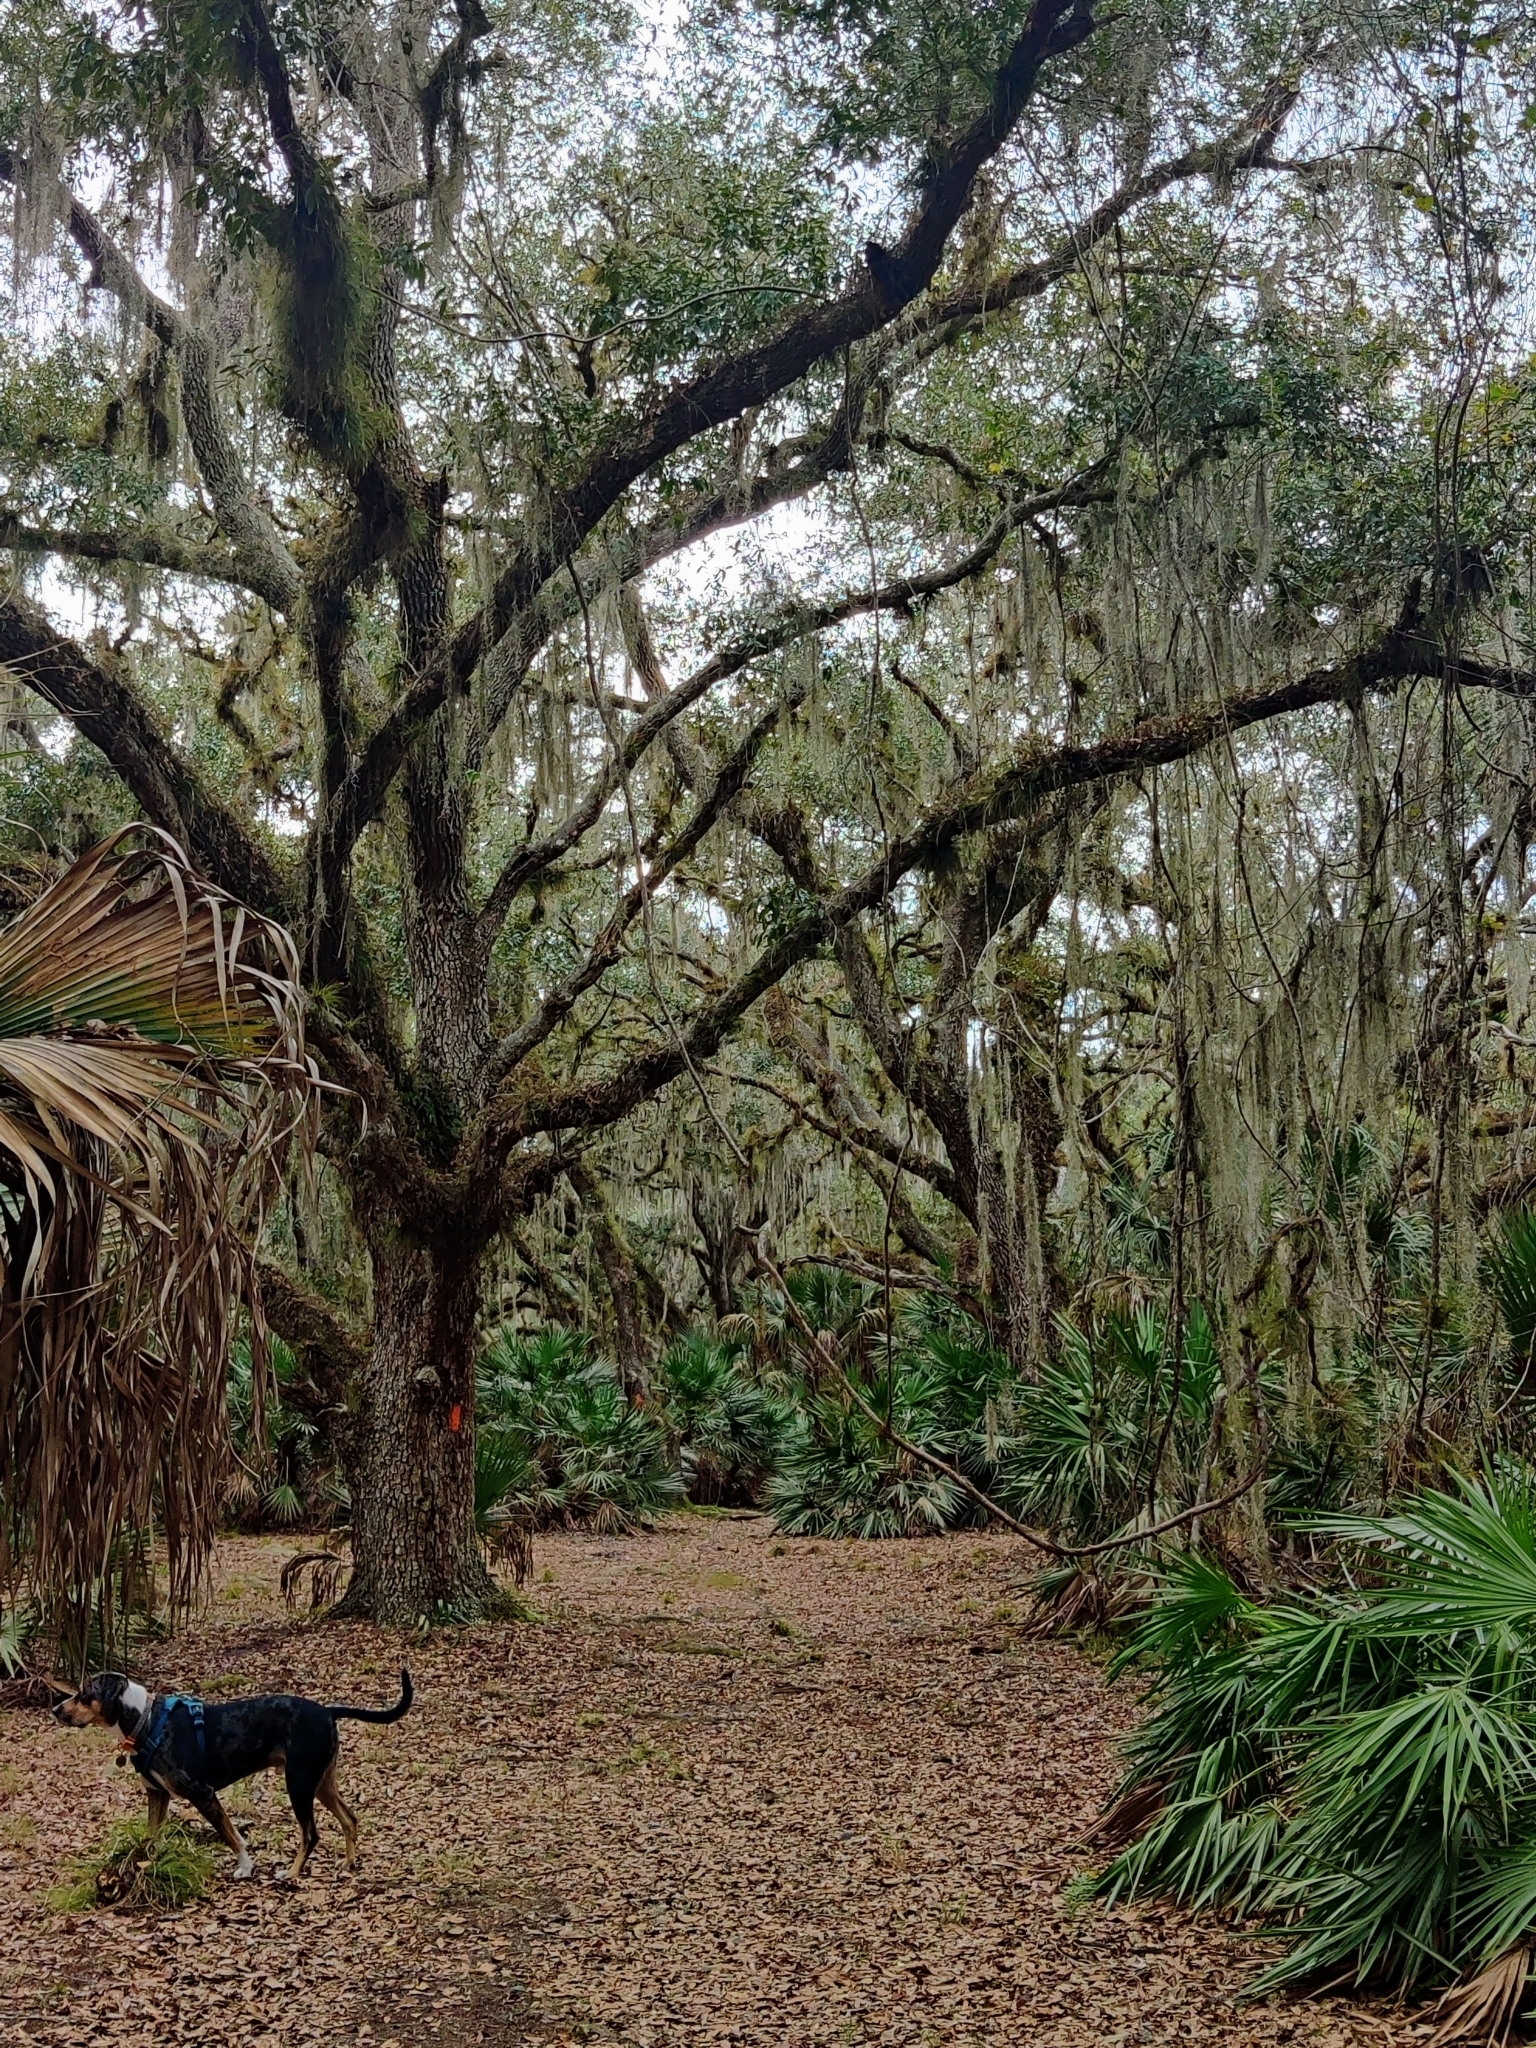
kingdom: Plantae
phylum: Tracheophyta
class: Magnoliopsida
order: Fagales
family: Fagaceae
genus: Quercus
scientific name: Quercus virginiana
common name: Southern live oak
